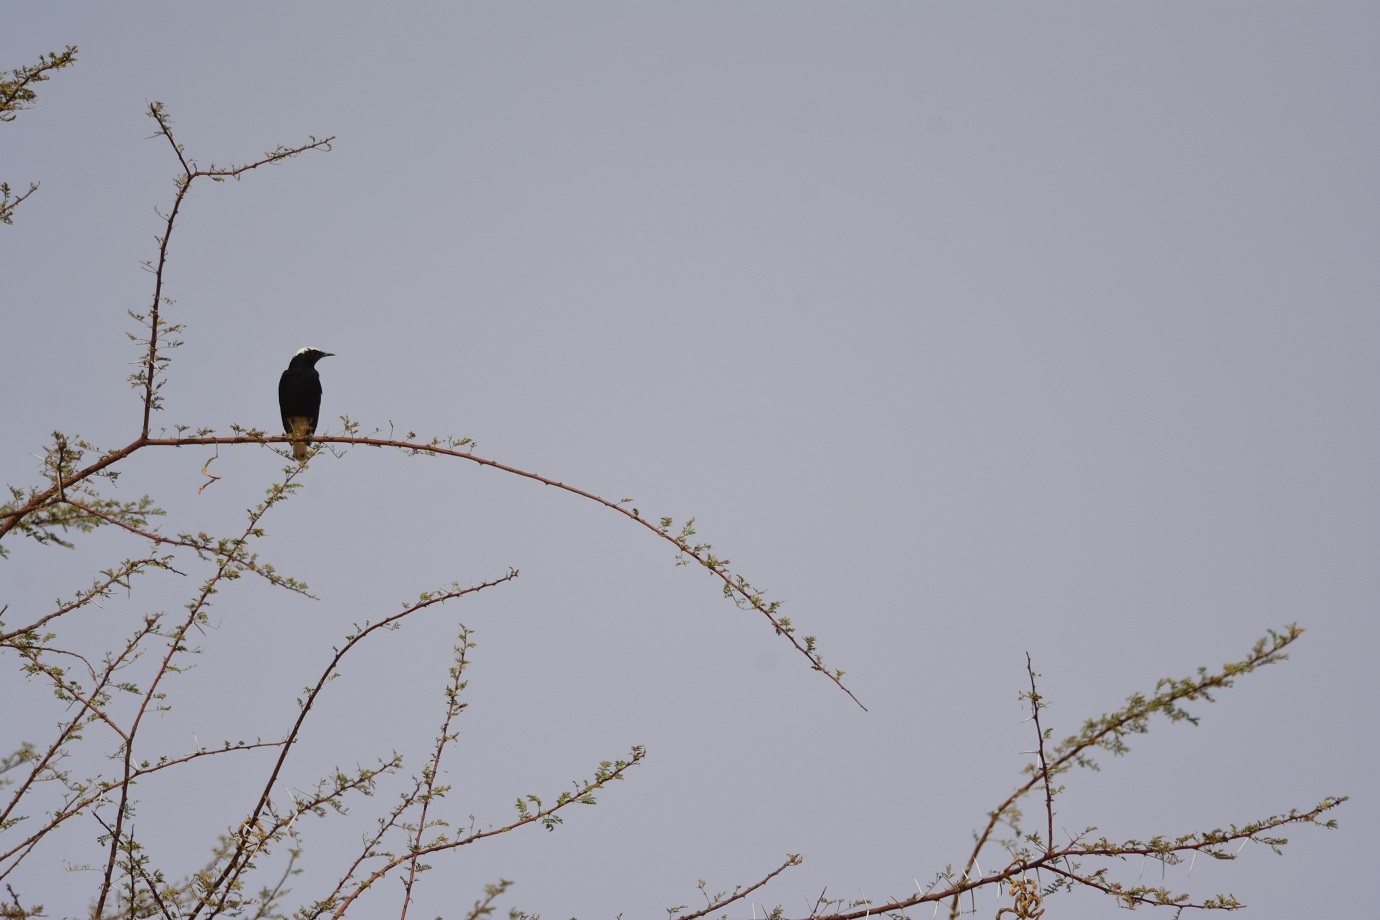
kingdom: Animalia
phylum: Chordata
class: Aves
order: Passeriformes
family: Muscicapidae
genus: Oenanthe
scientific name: Oenanthe leucopyga
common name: White-crowned wheatear
